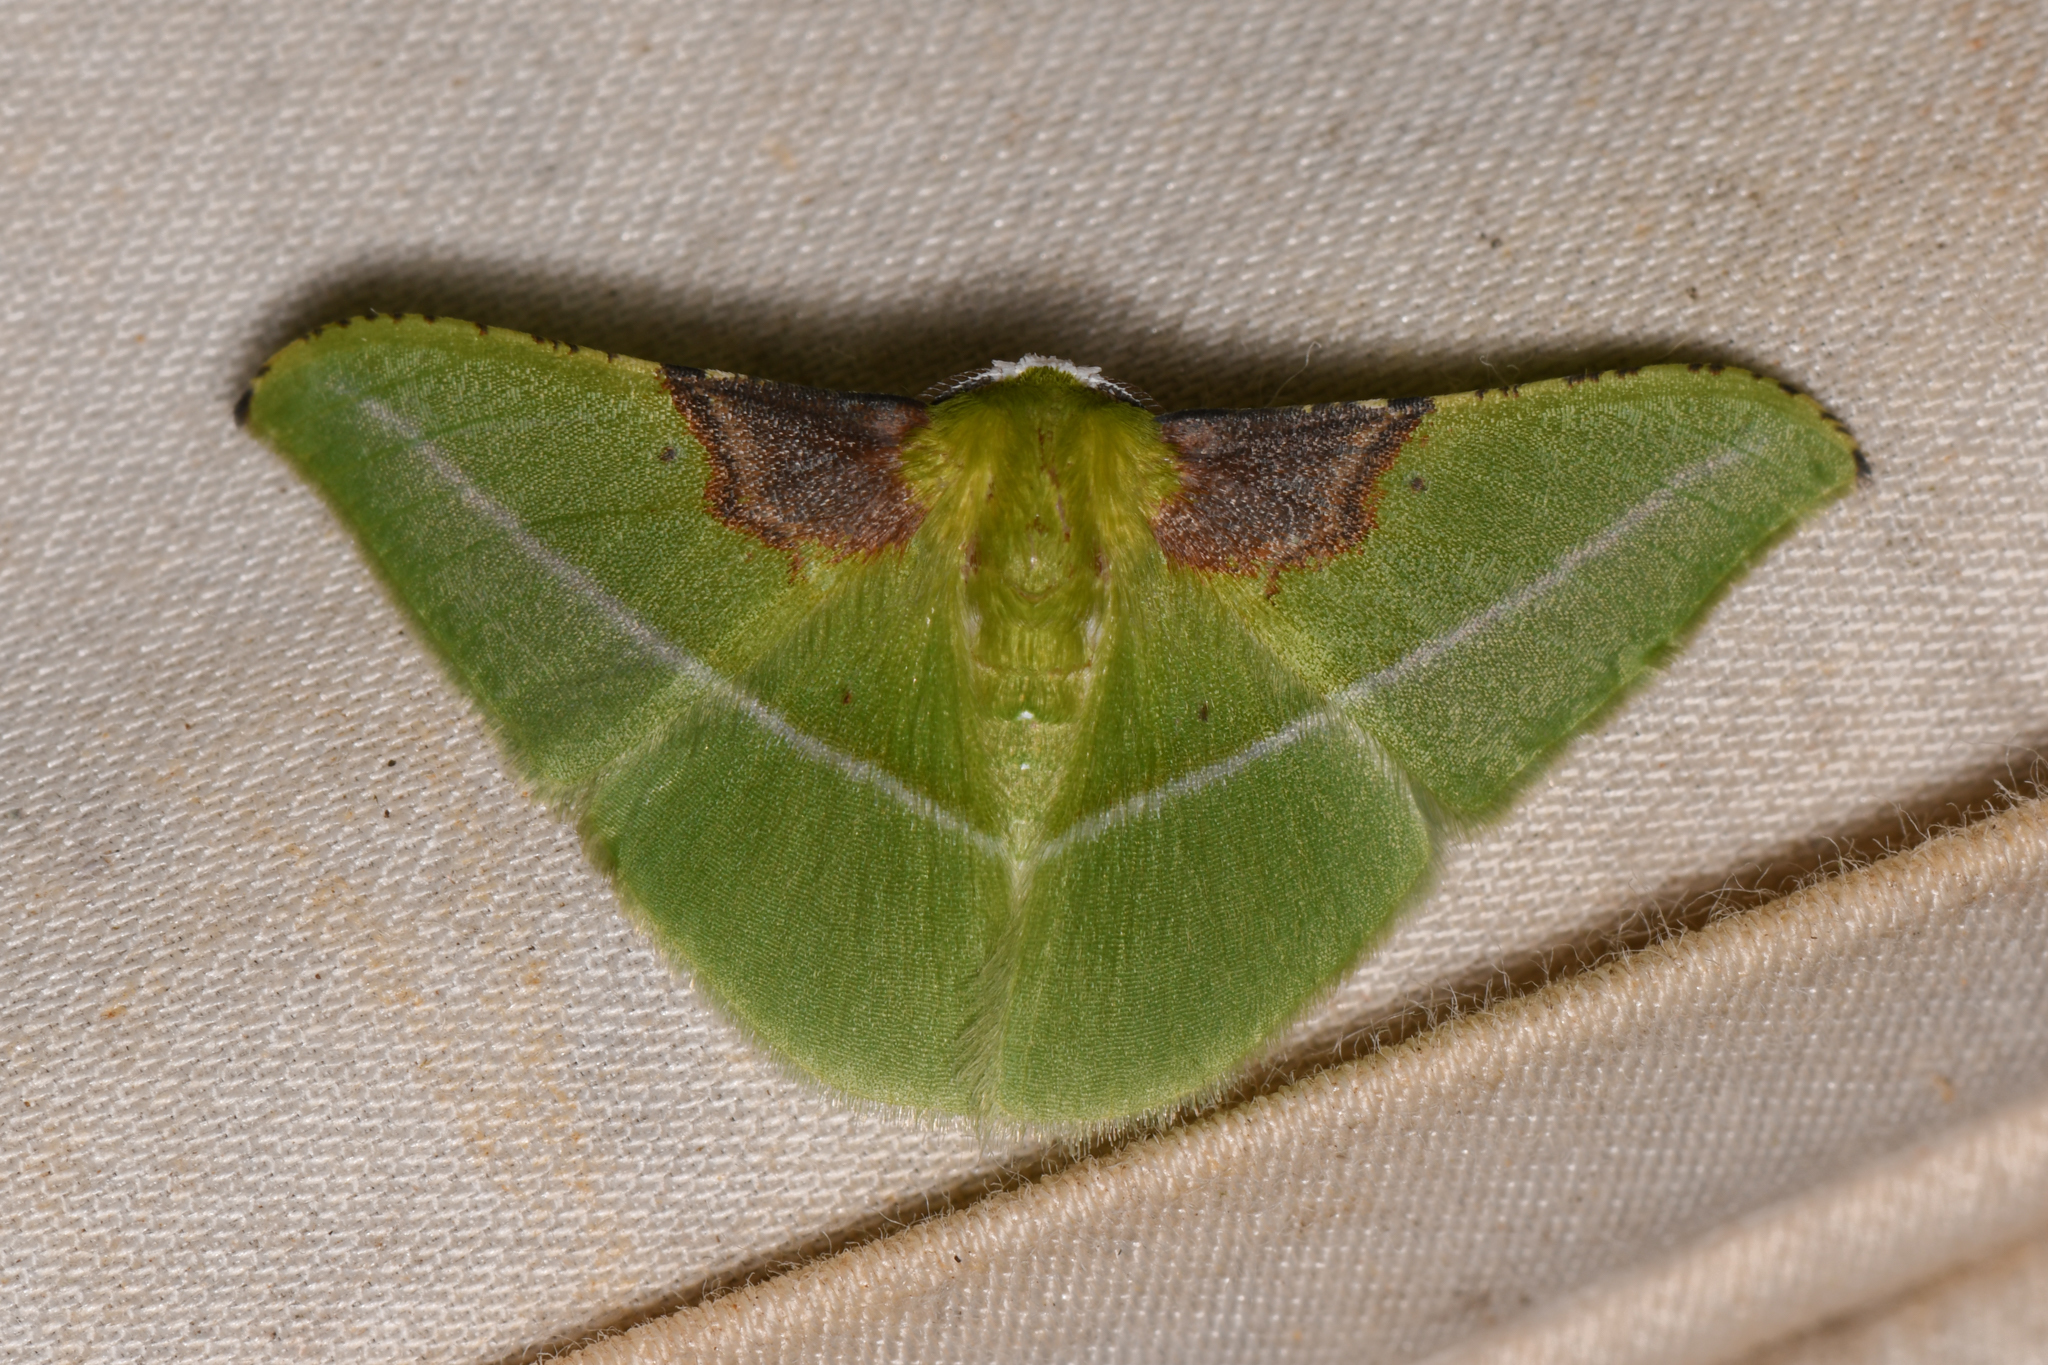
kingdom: Animalia
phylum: Arthropoda
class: Insecta
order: Lepidoptera
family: Geometridae
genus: Tachyphyle
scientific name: Tachyphyle basiplaga
